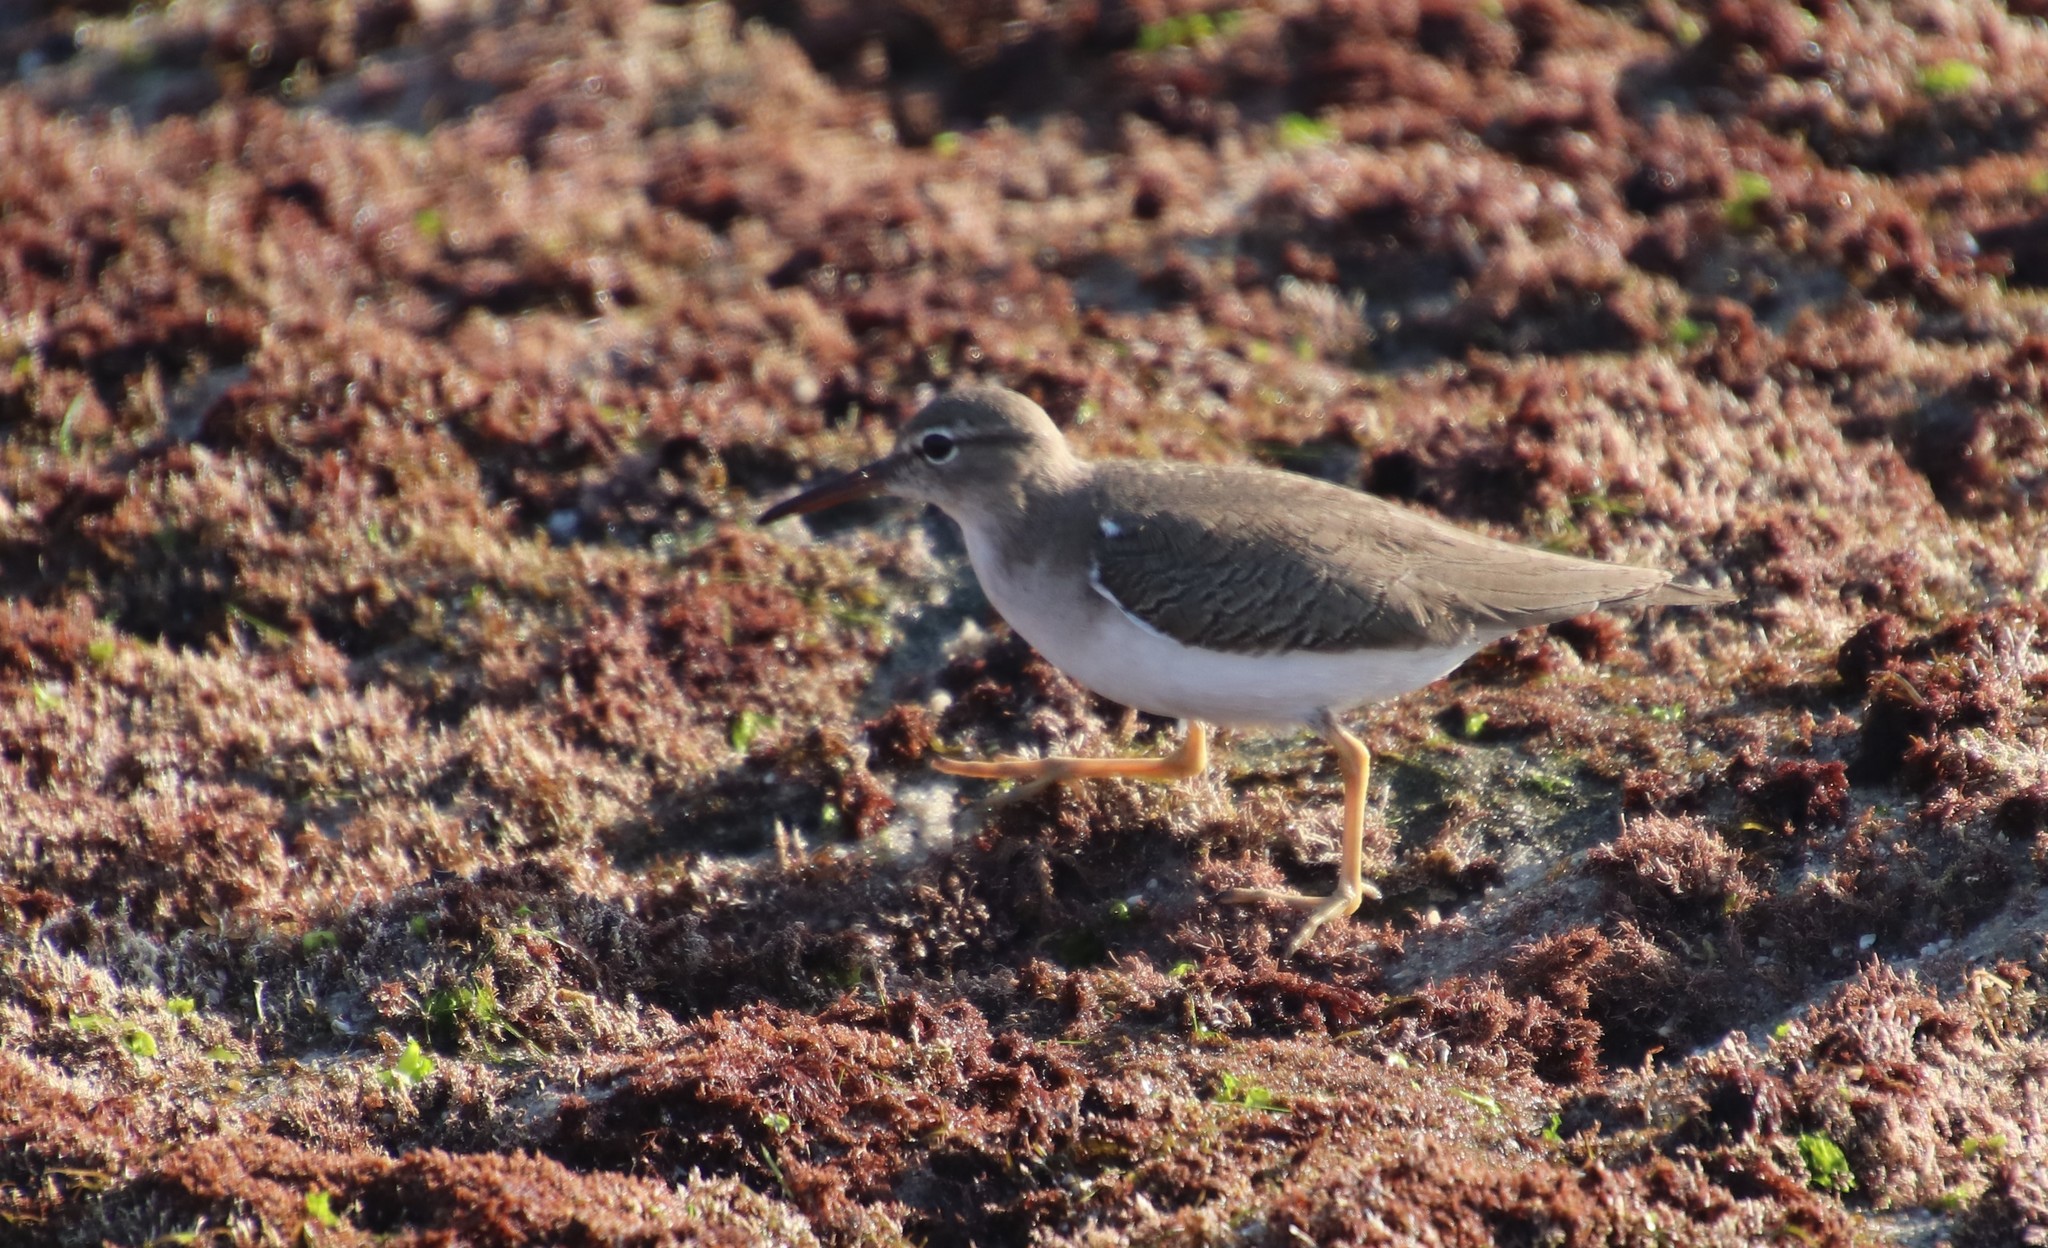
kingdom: Animalia
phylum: Chordata
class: Aves
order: Charadriiformes
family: Scolopacidae
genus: Actitis
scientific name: Actitis macularius
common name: Spotted sandpiper
